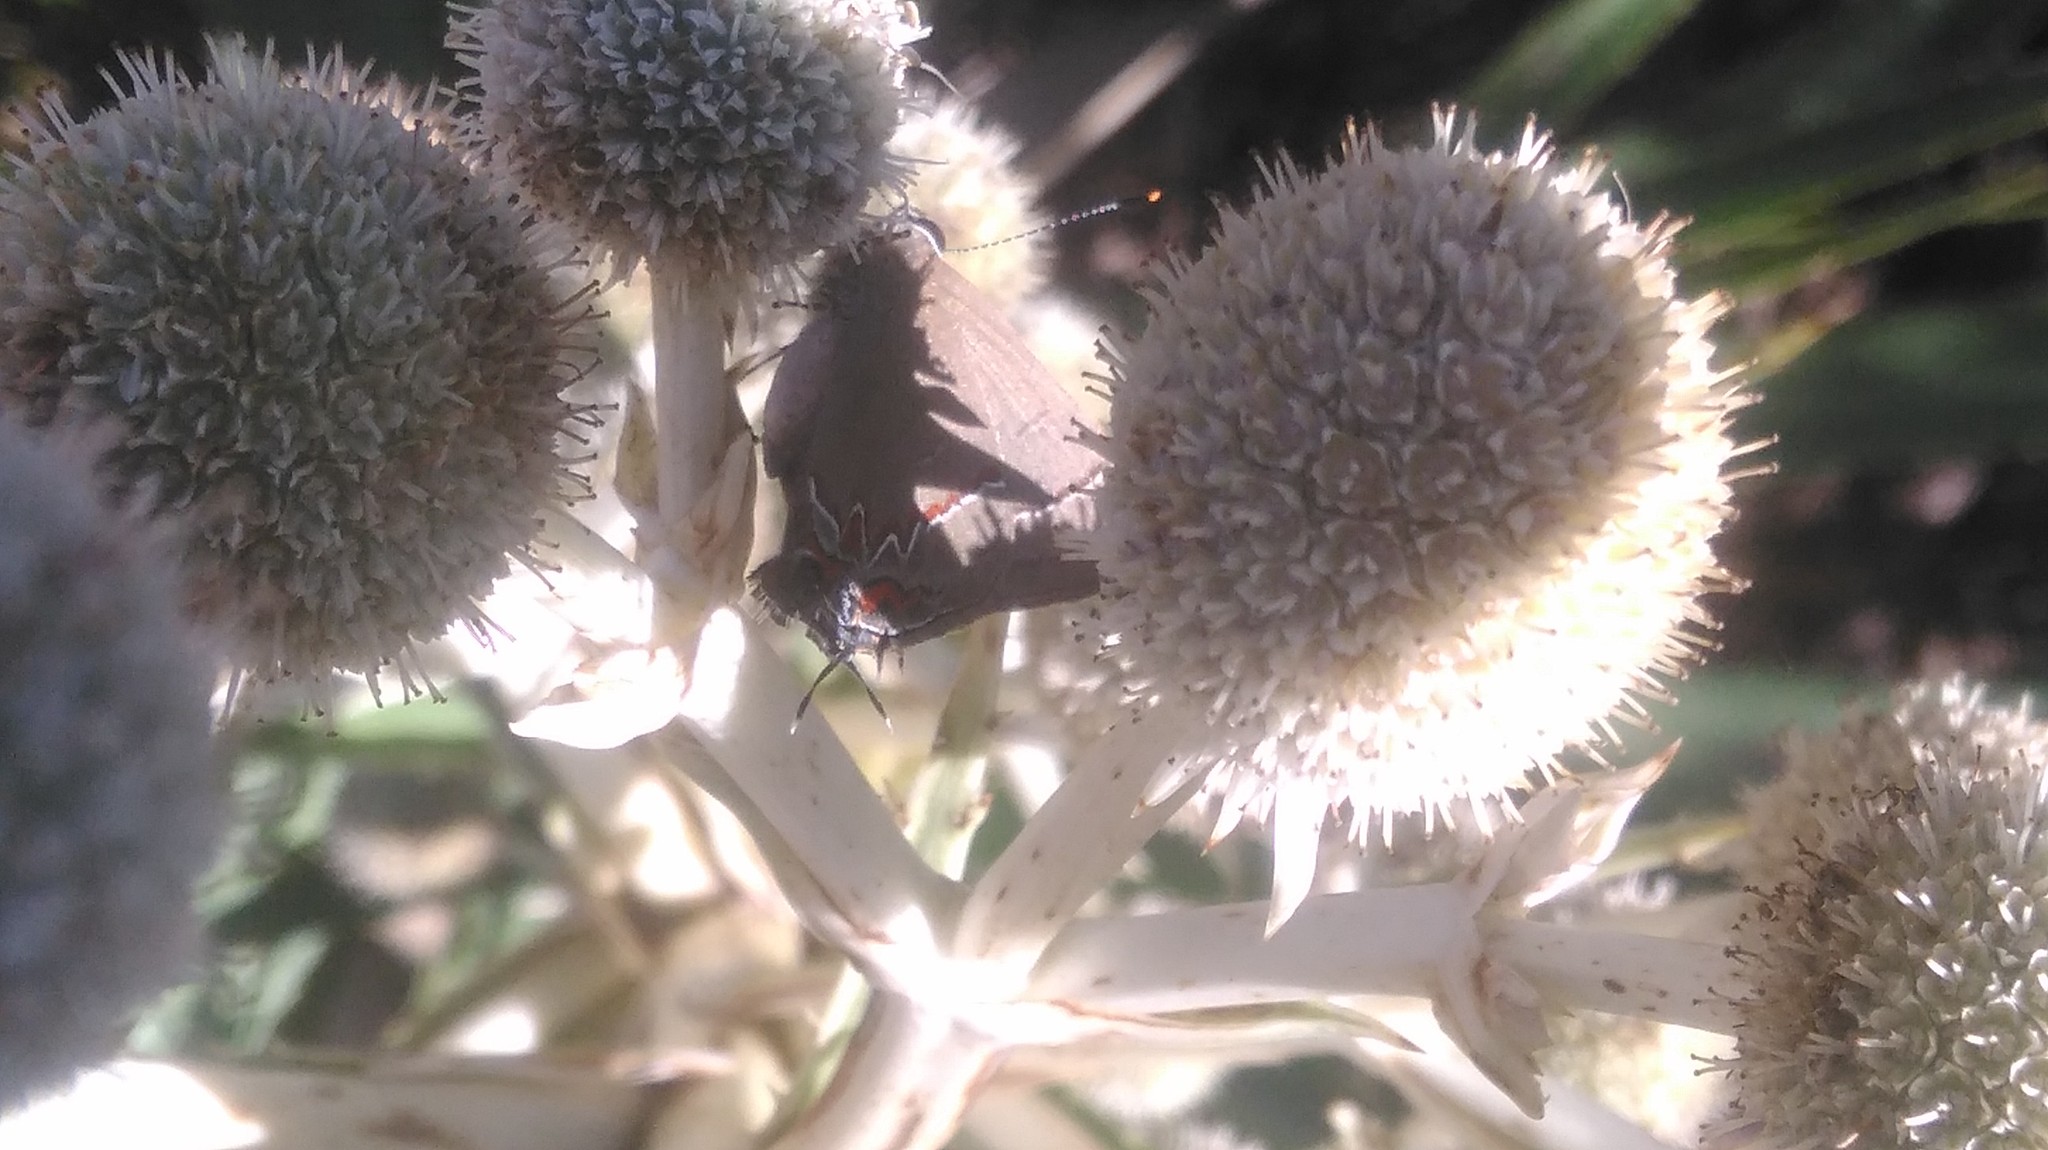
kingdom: Animalia
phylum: Arthropoda
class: Insecta
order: Lepidoptera
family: Lycaenidae
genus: Calycopis
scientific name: Calycopis caulonia
